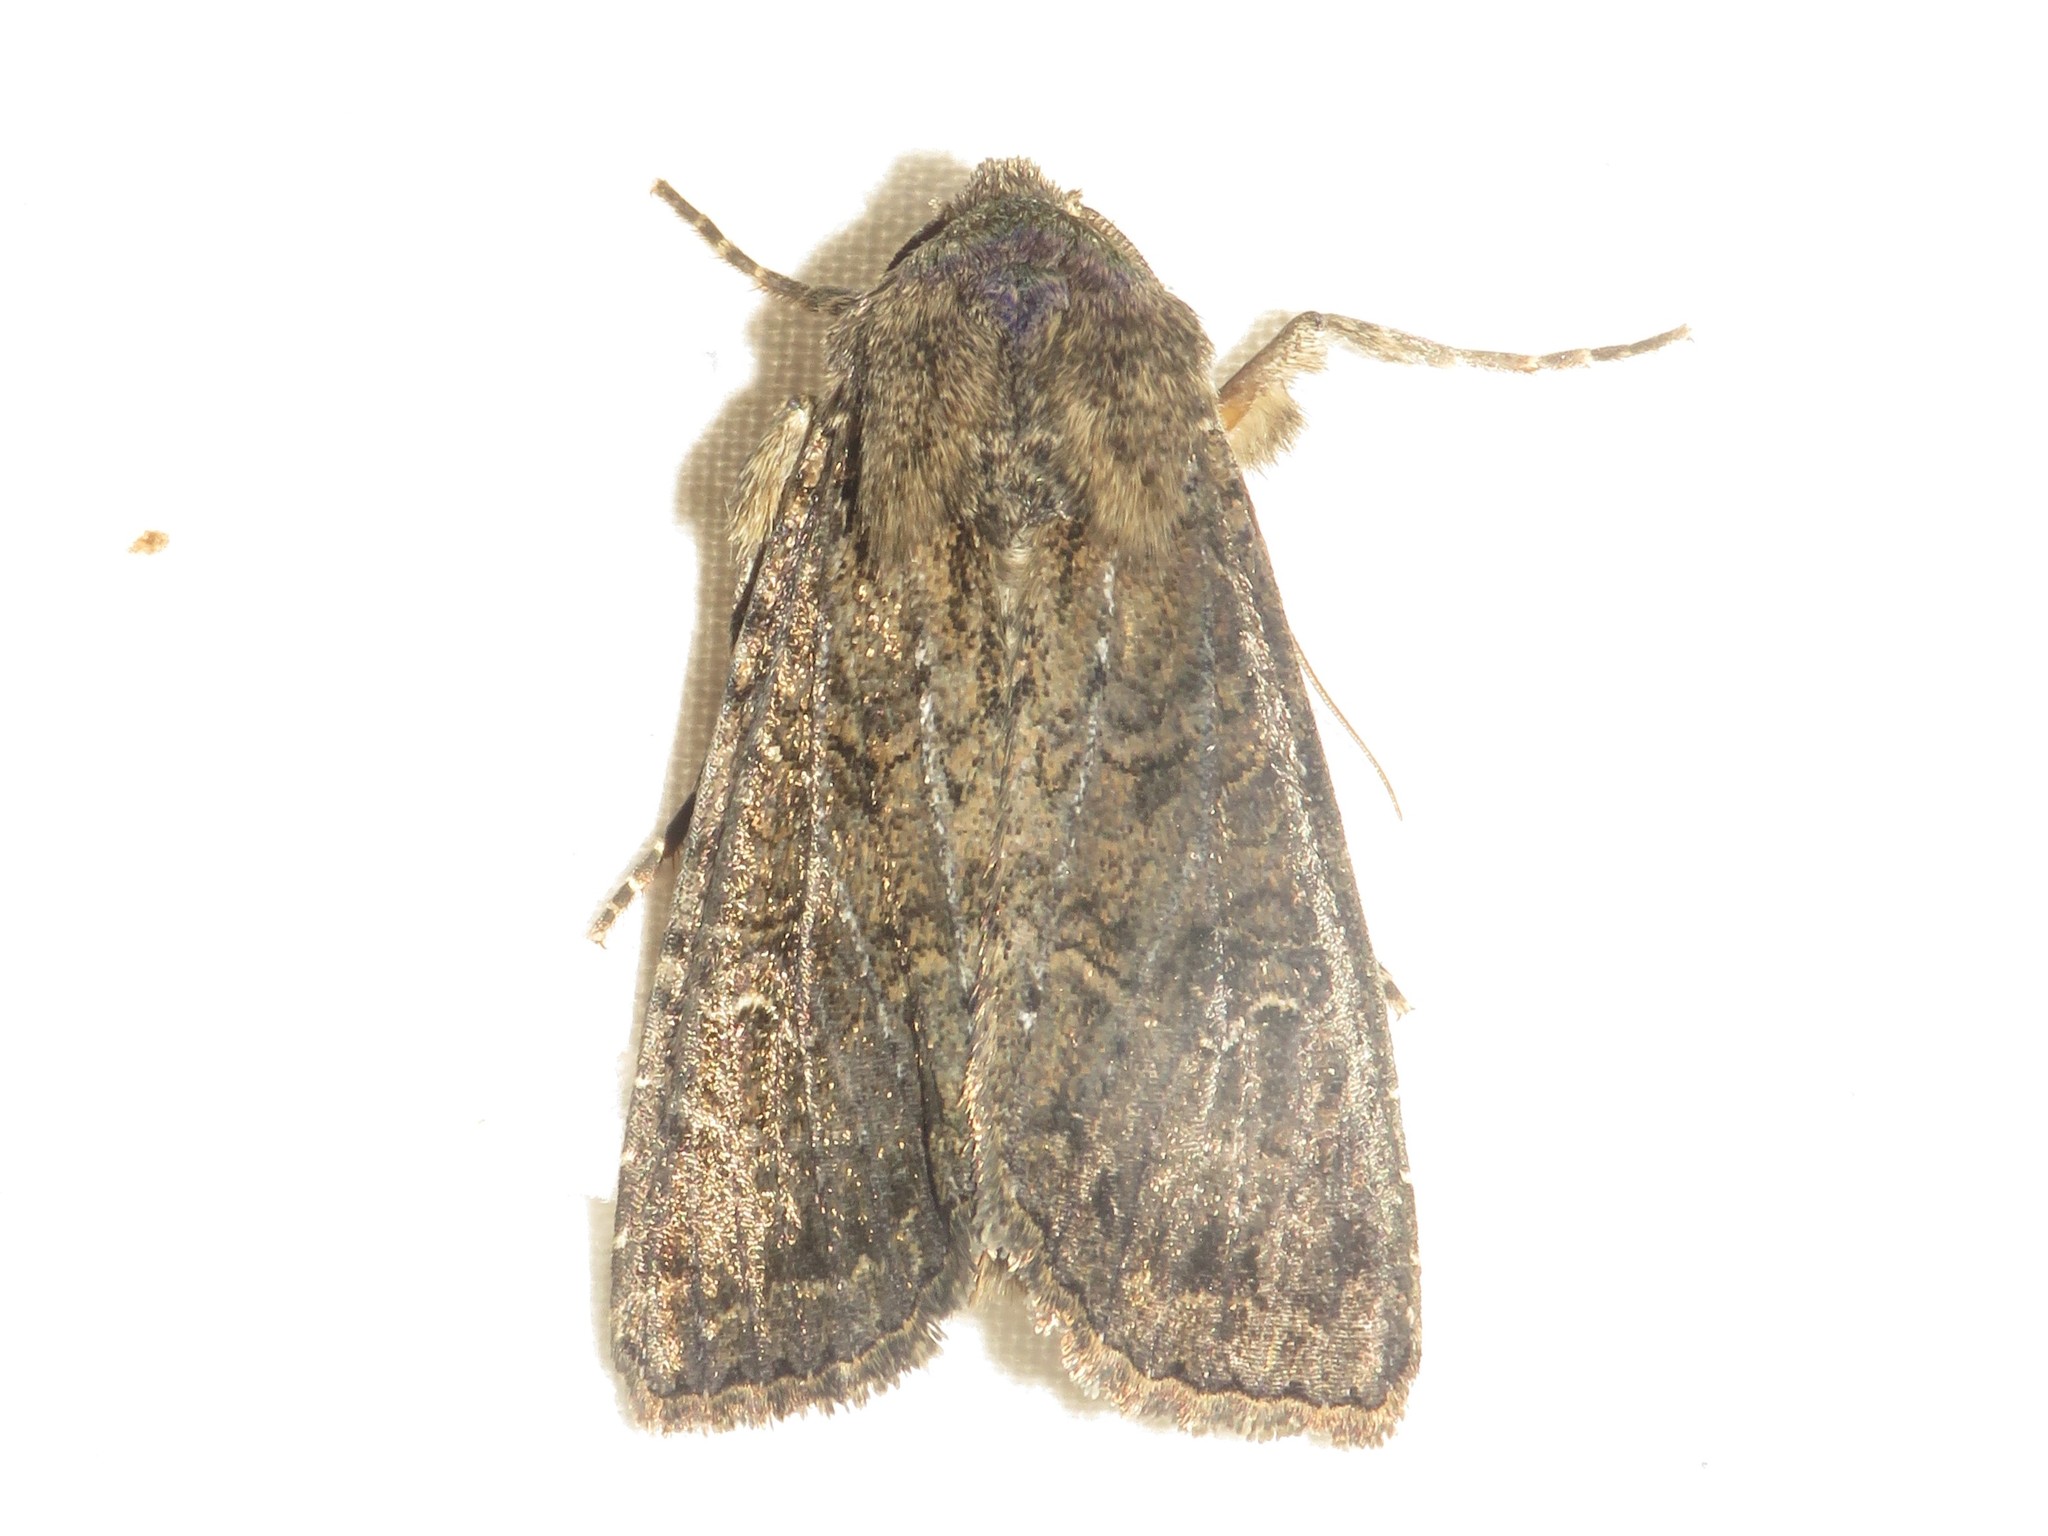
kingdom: Animalia
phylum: Arthropoda
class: Insecta
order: Lepidoptera
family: Noctuidae
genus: Apamea
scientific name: Apamea devastator
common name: Glassy cutworm
